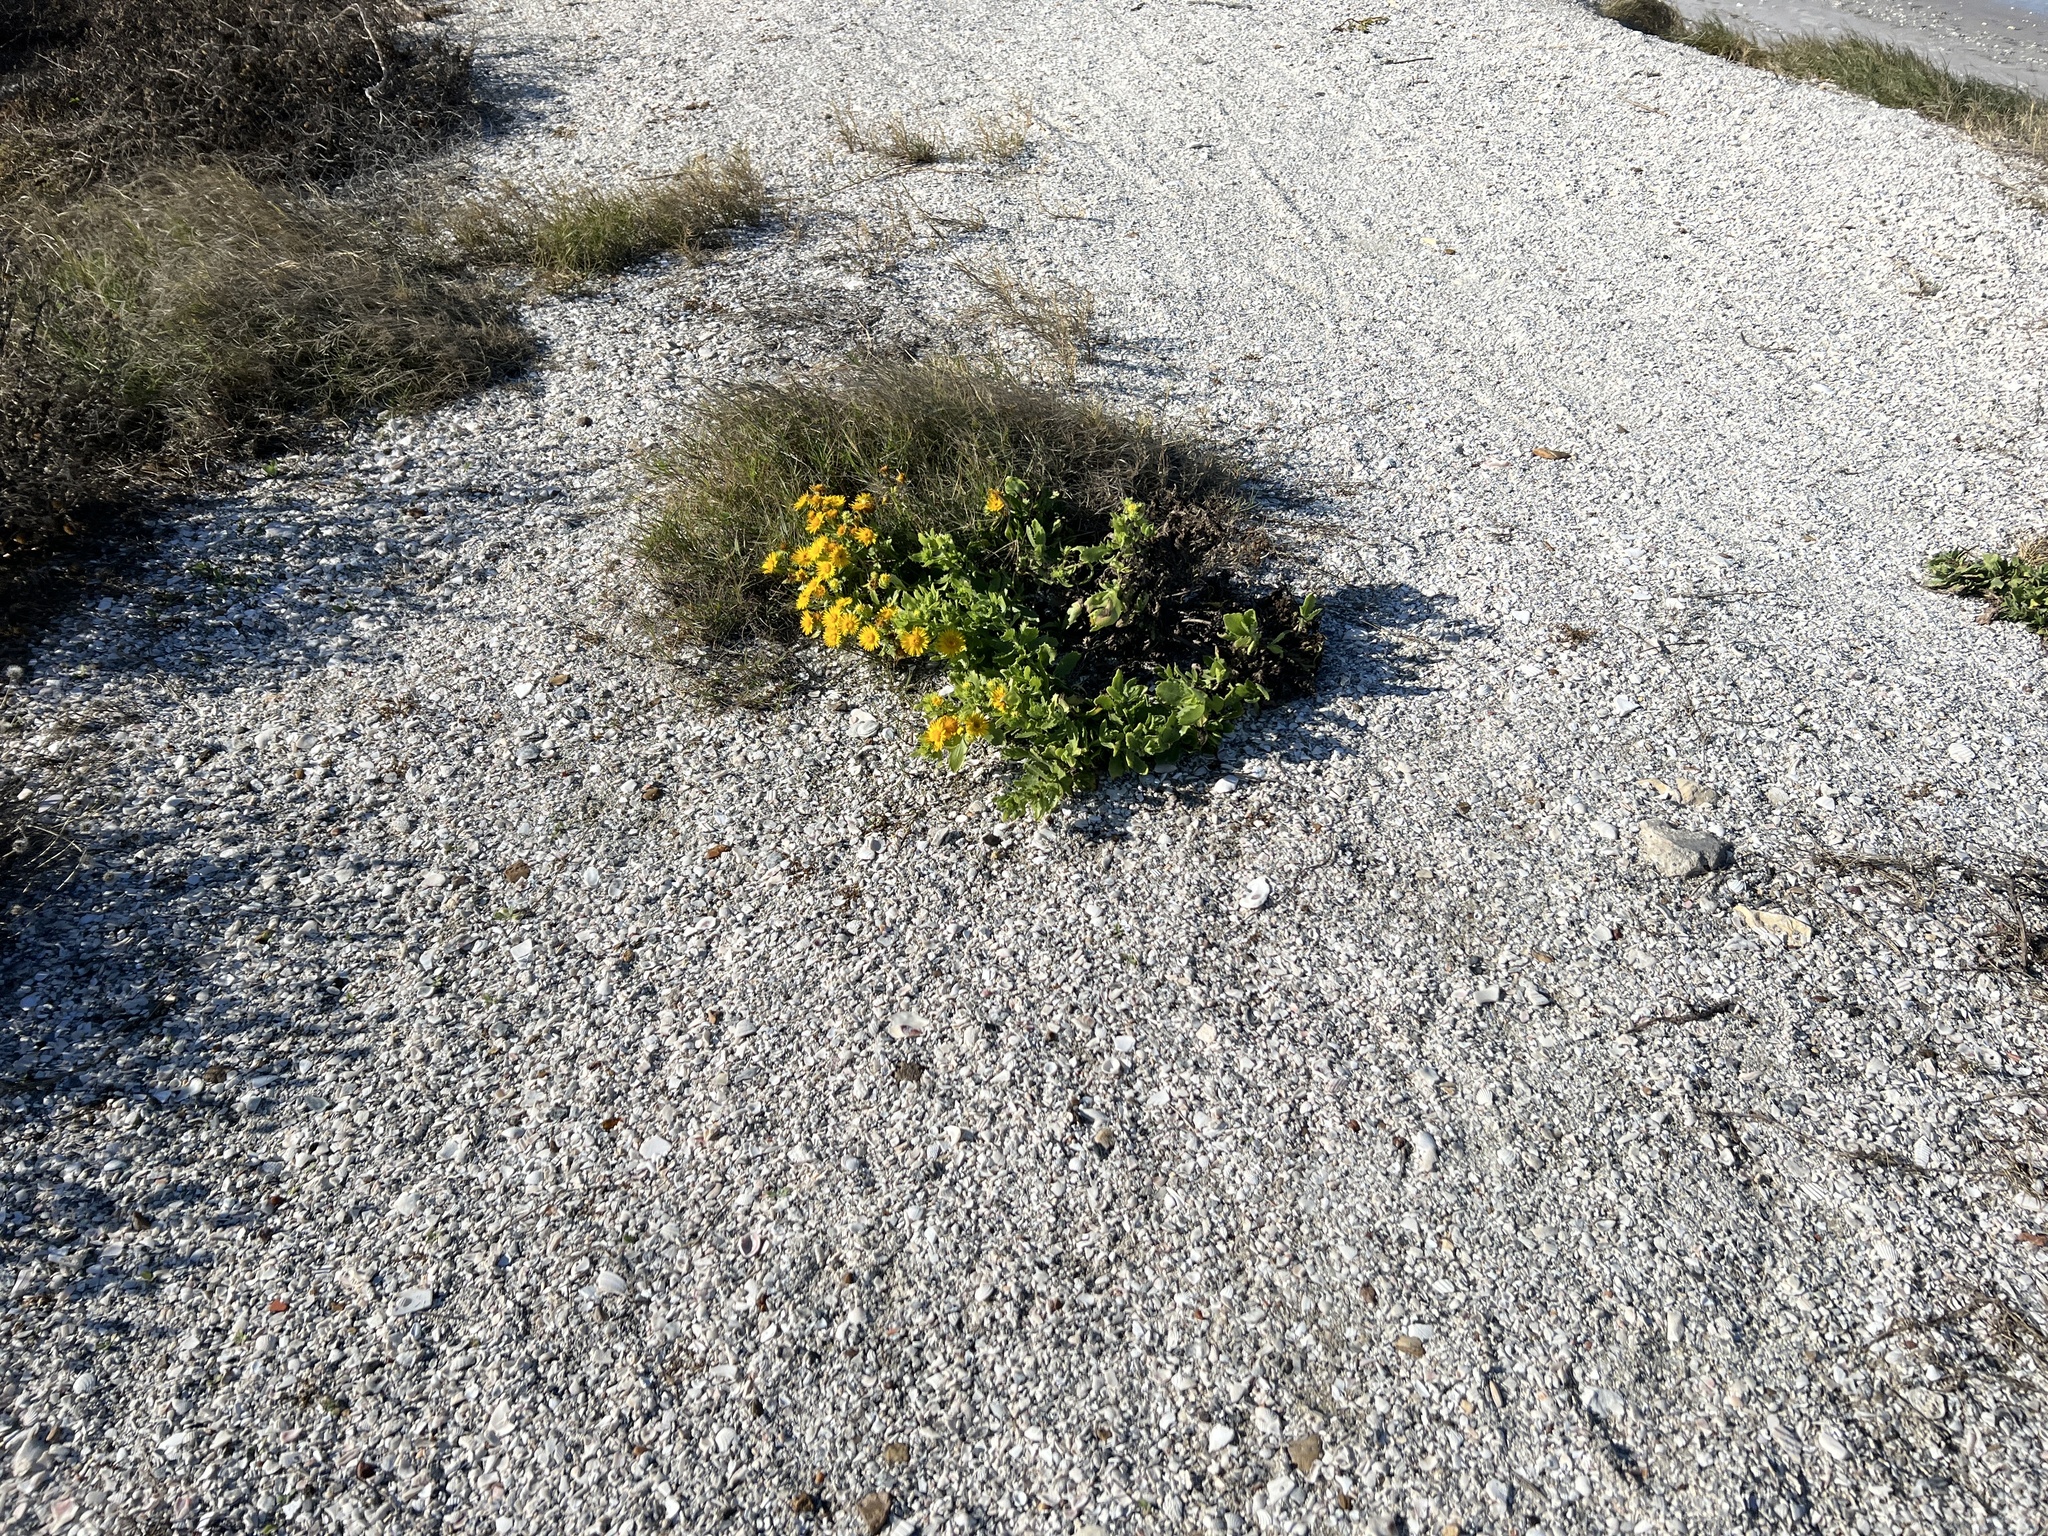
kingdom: Plantae
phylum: Tracheophyta
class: Magnoliopsida
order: Asterales
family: Asteraceae
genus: Rayjacksonia
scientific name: Rayjacksonia phyllocephala
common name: Gulf coast camphor daisy
